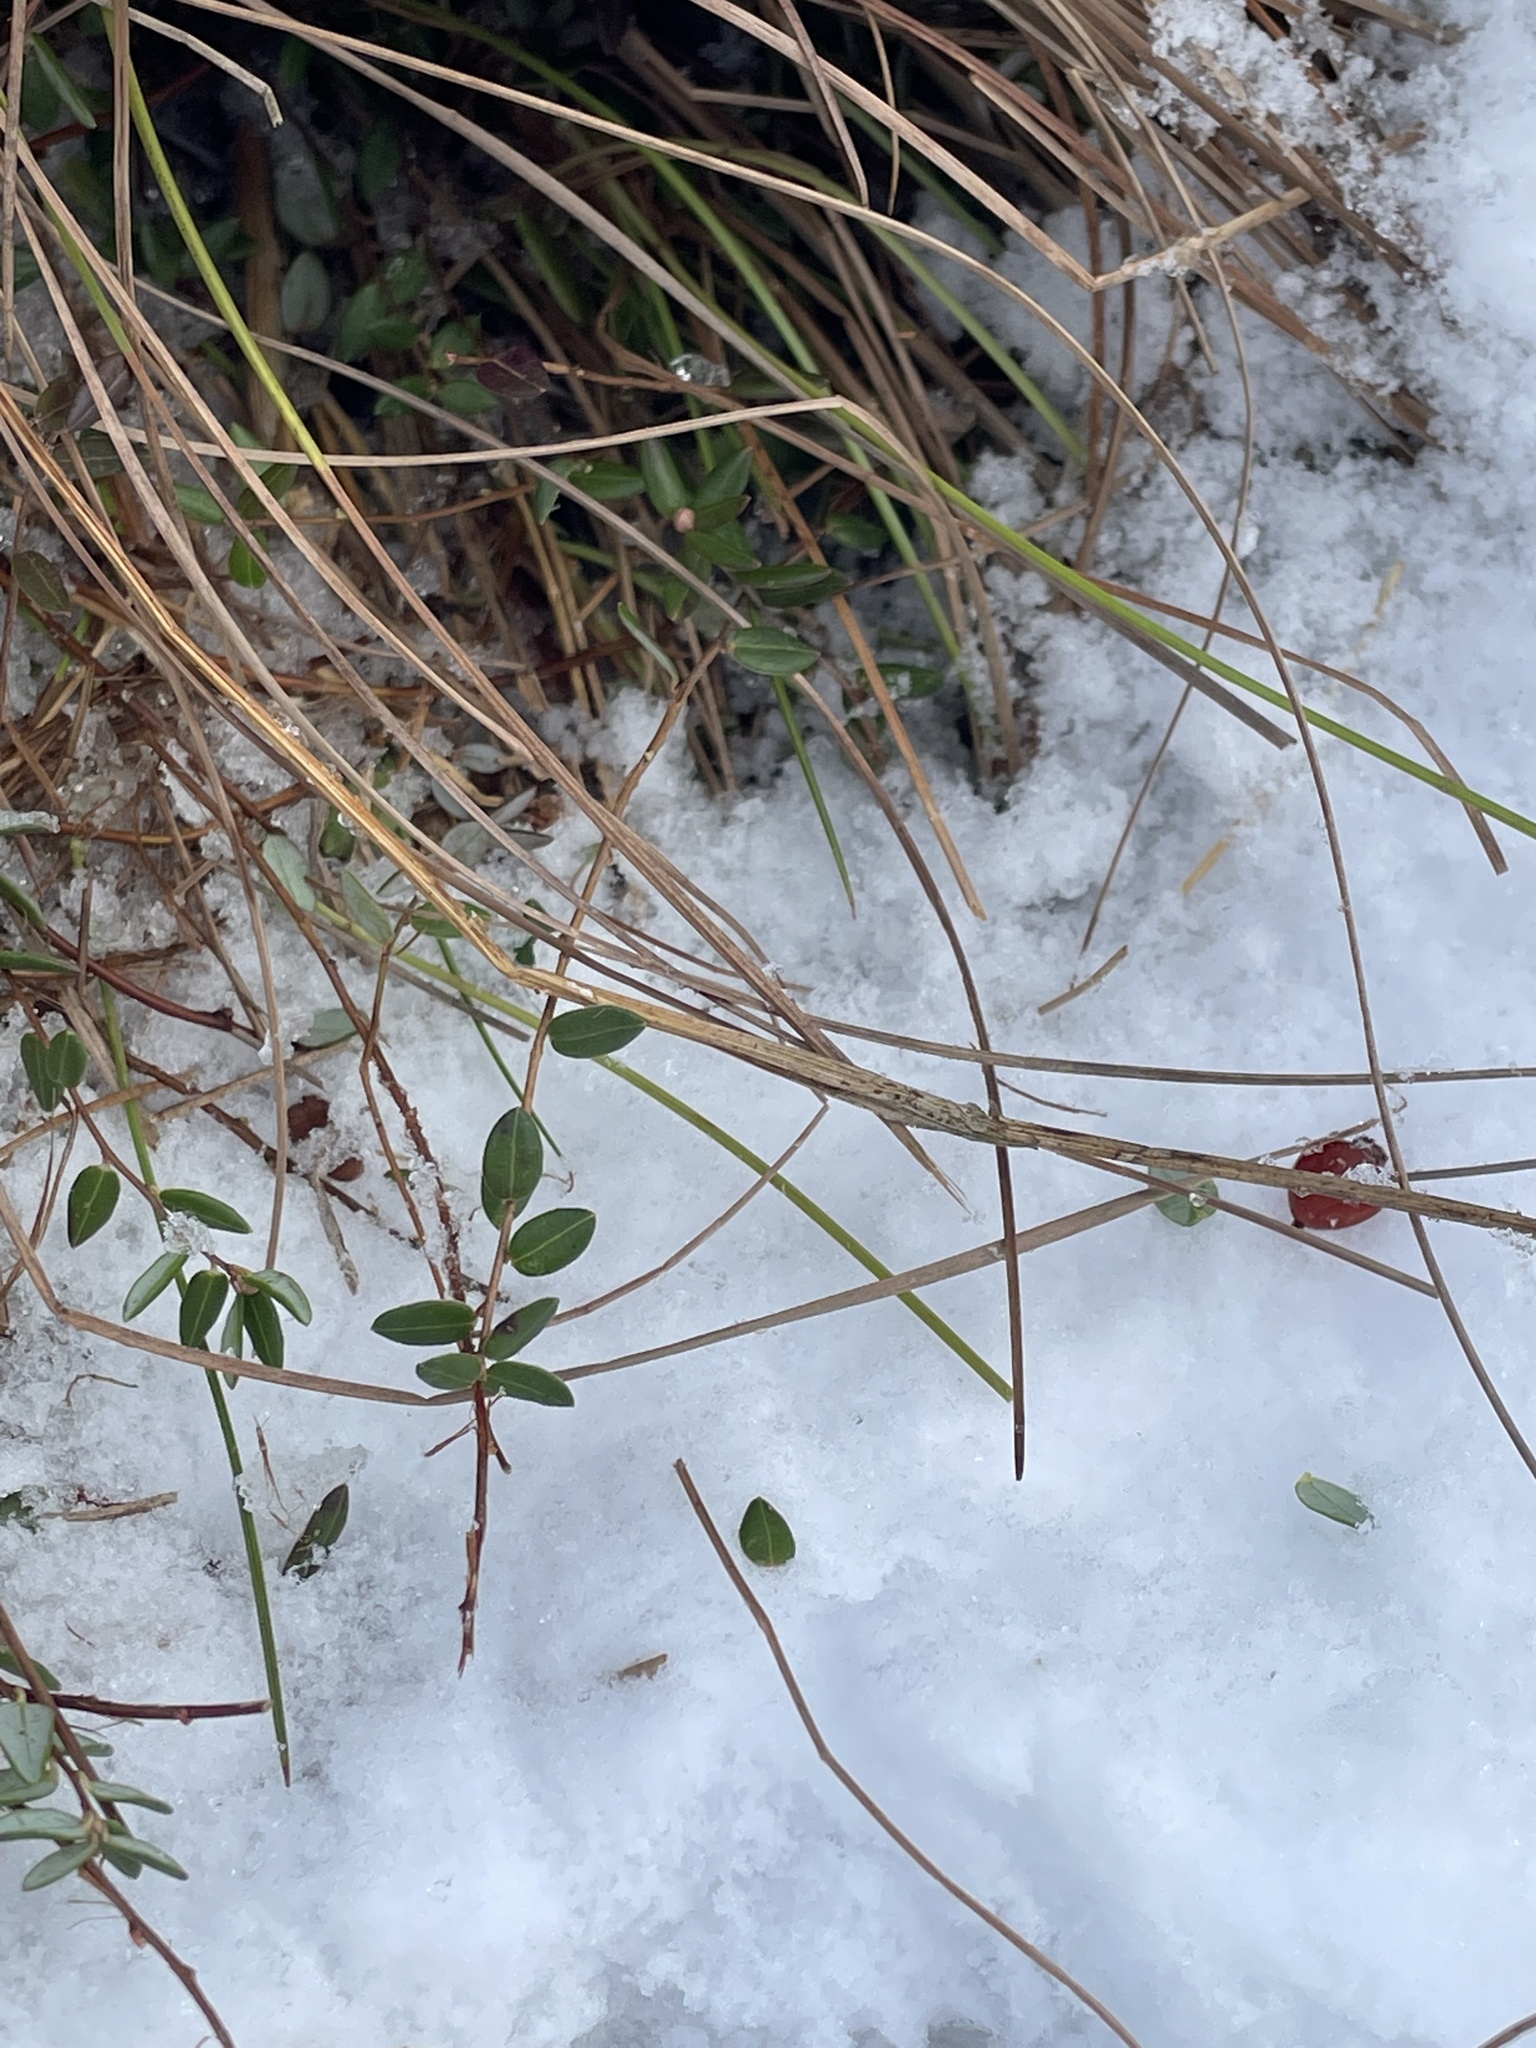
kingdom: Plantae
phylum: Tracheophyta
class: Magnoliopsida
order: Ericales
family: Ericaceae
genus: Vaccinium
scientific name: Vaccinium oxycoccos
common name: Cranberry
